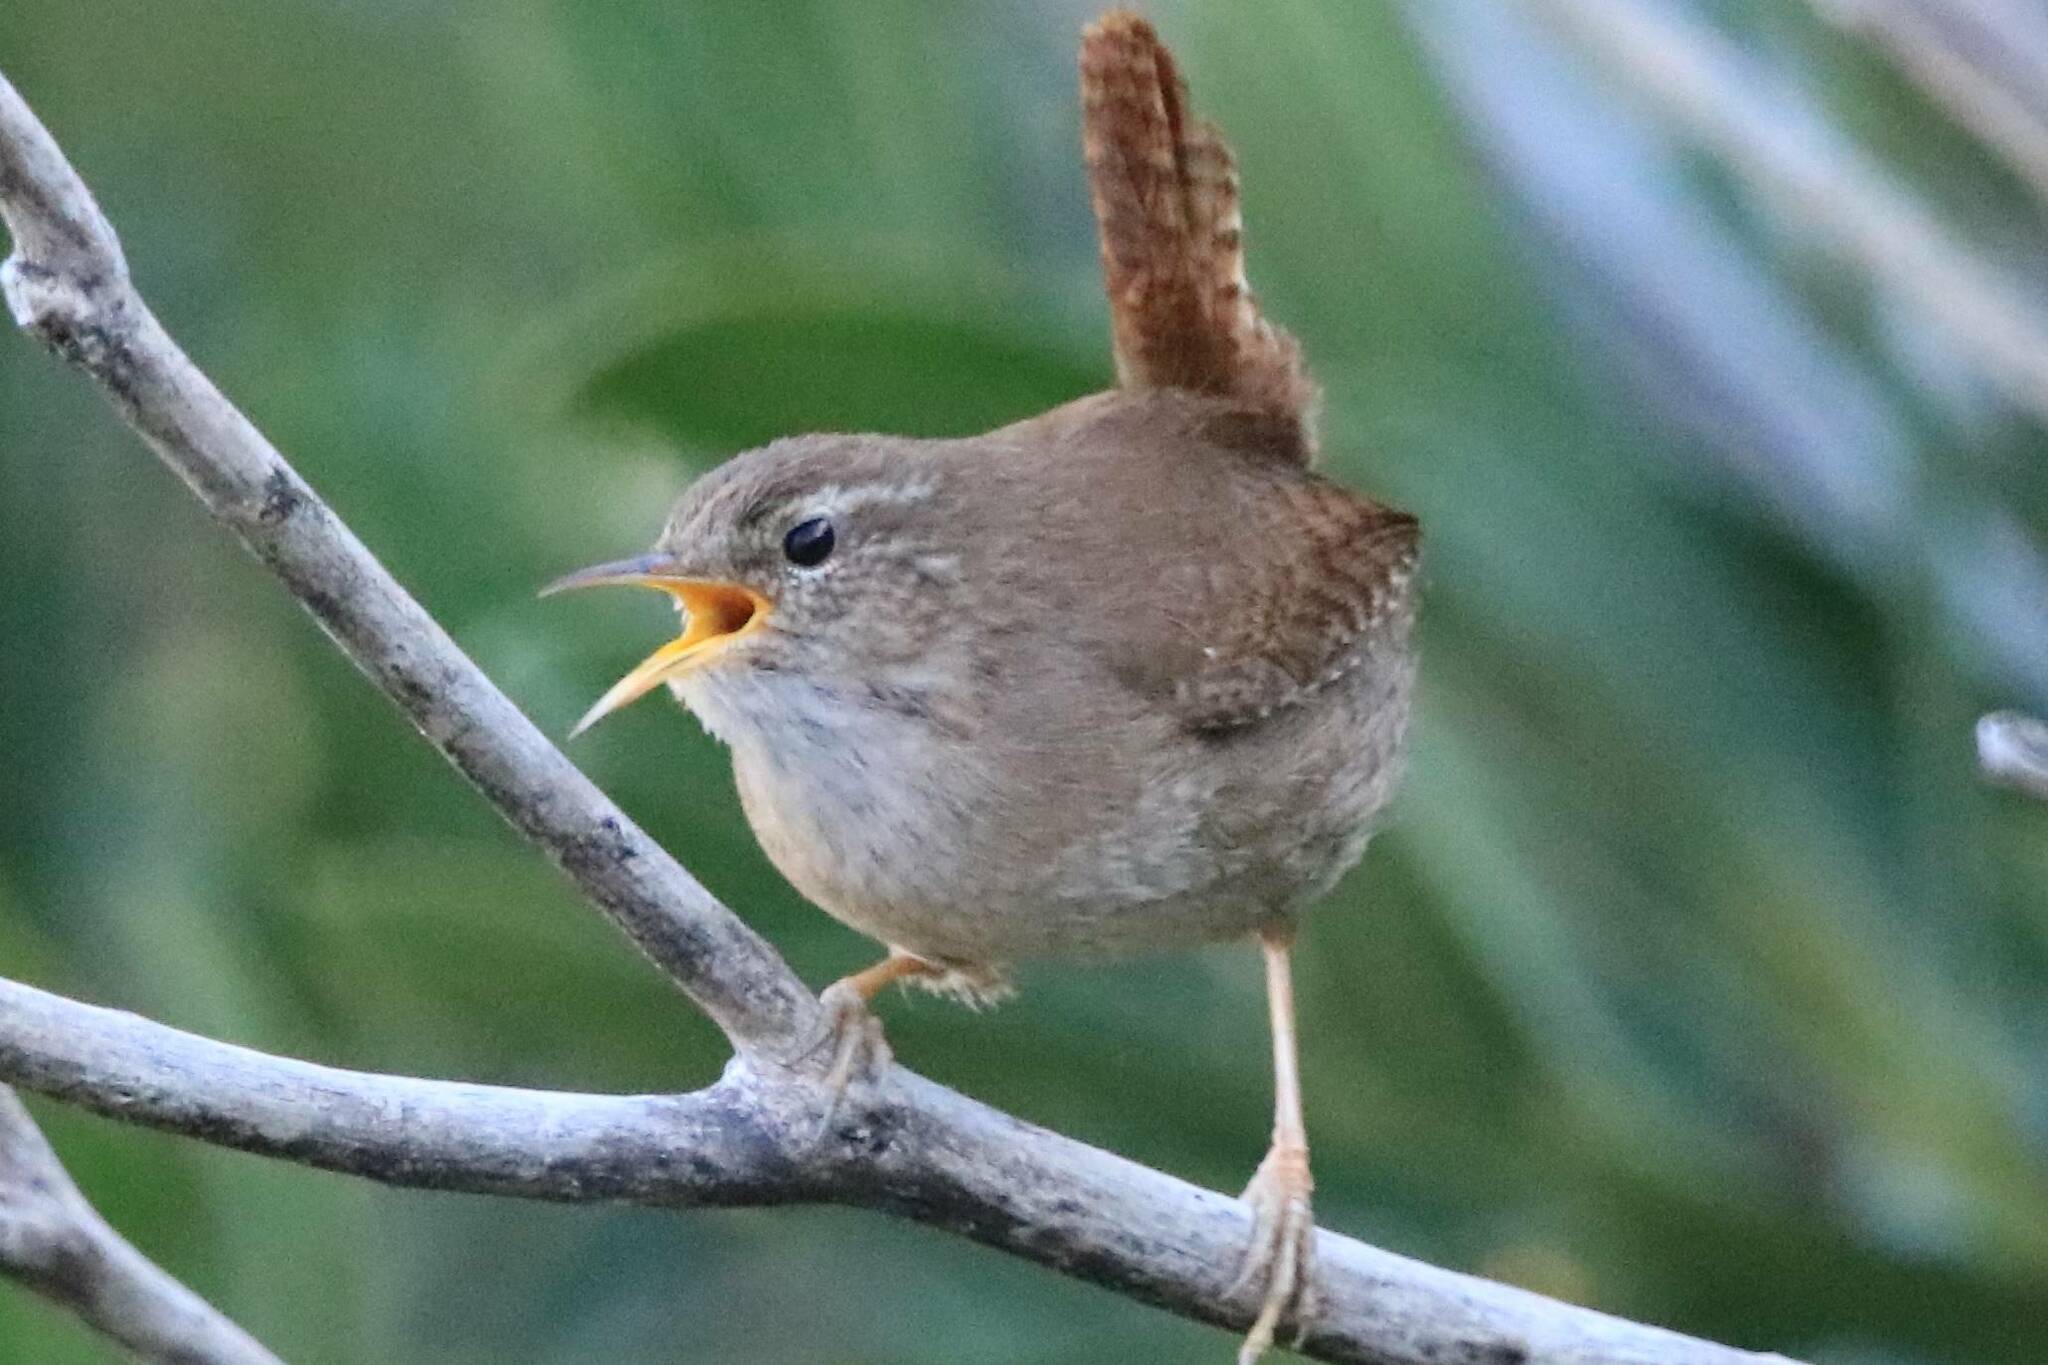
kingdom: Animalia
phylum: Chordata
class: Aves
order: Passeriformes
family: Troglodytidae
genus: Troglodytes
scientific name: Troglodytes troglodytes
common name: Eurasian wren
